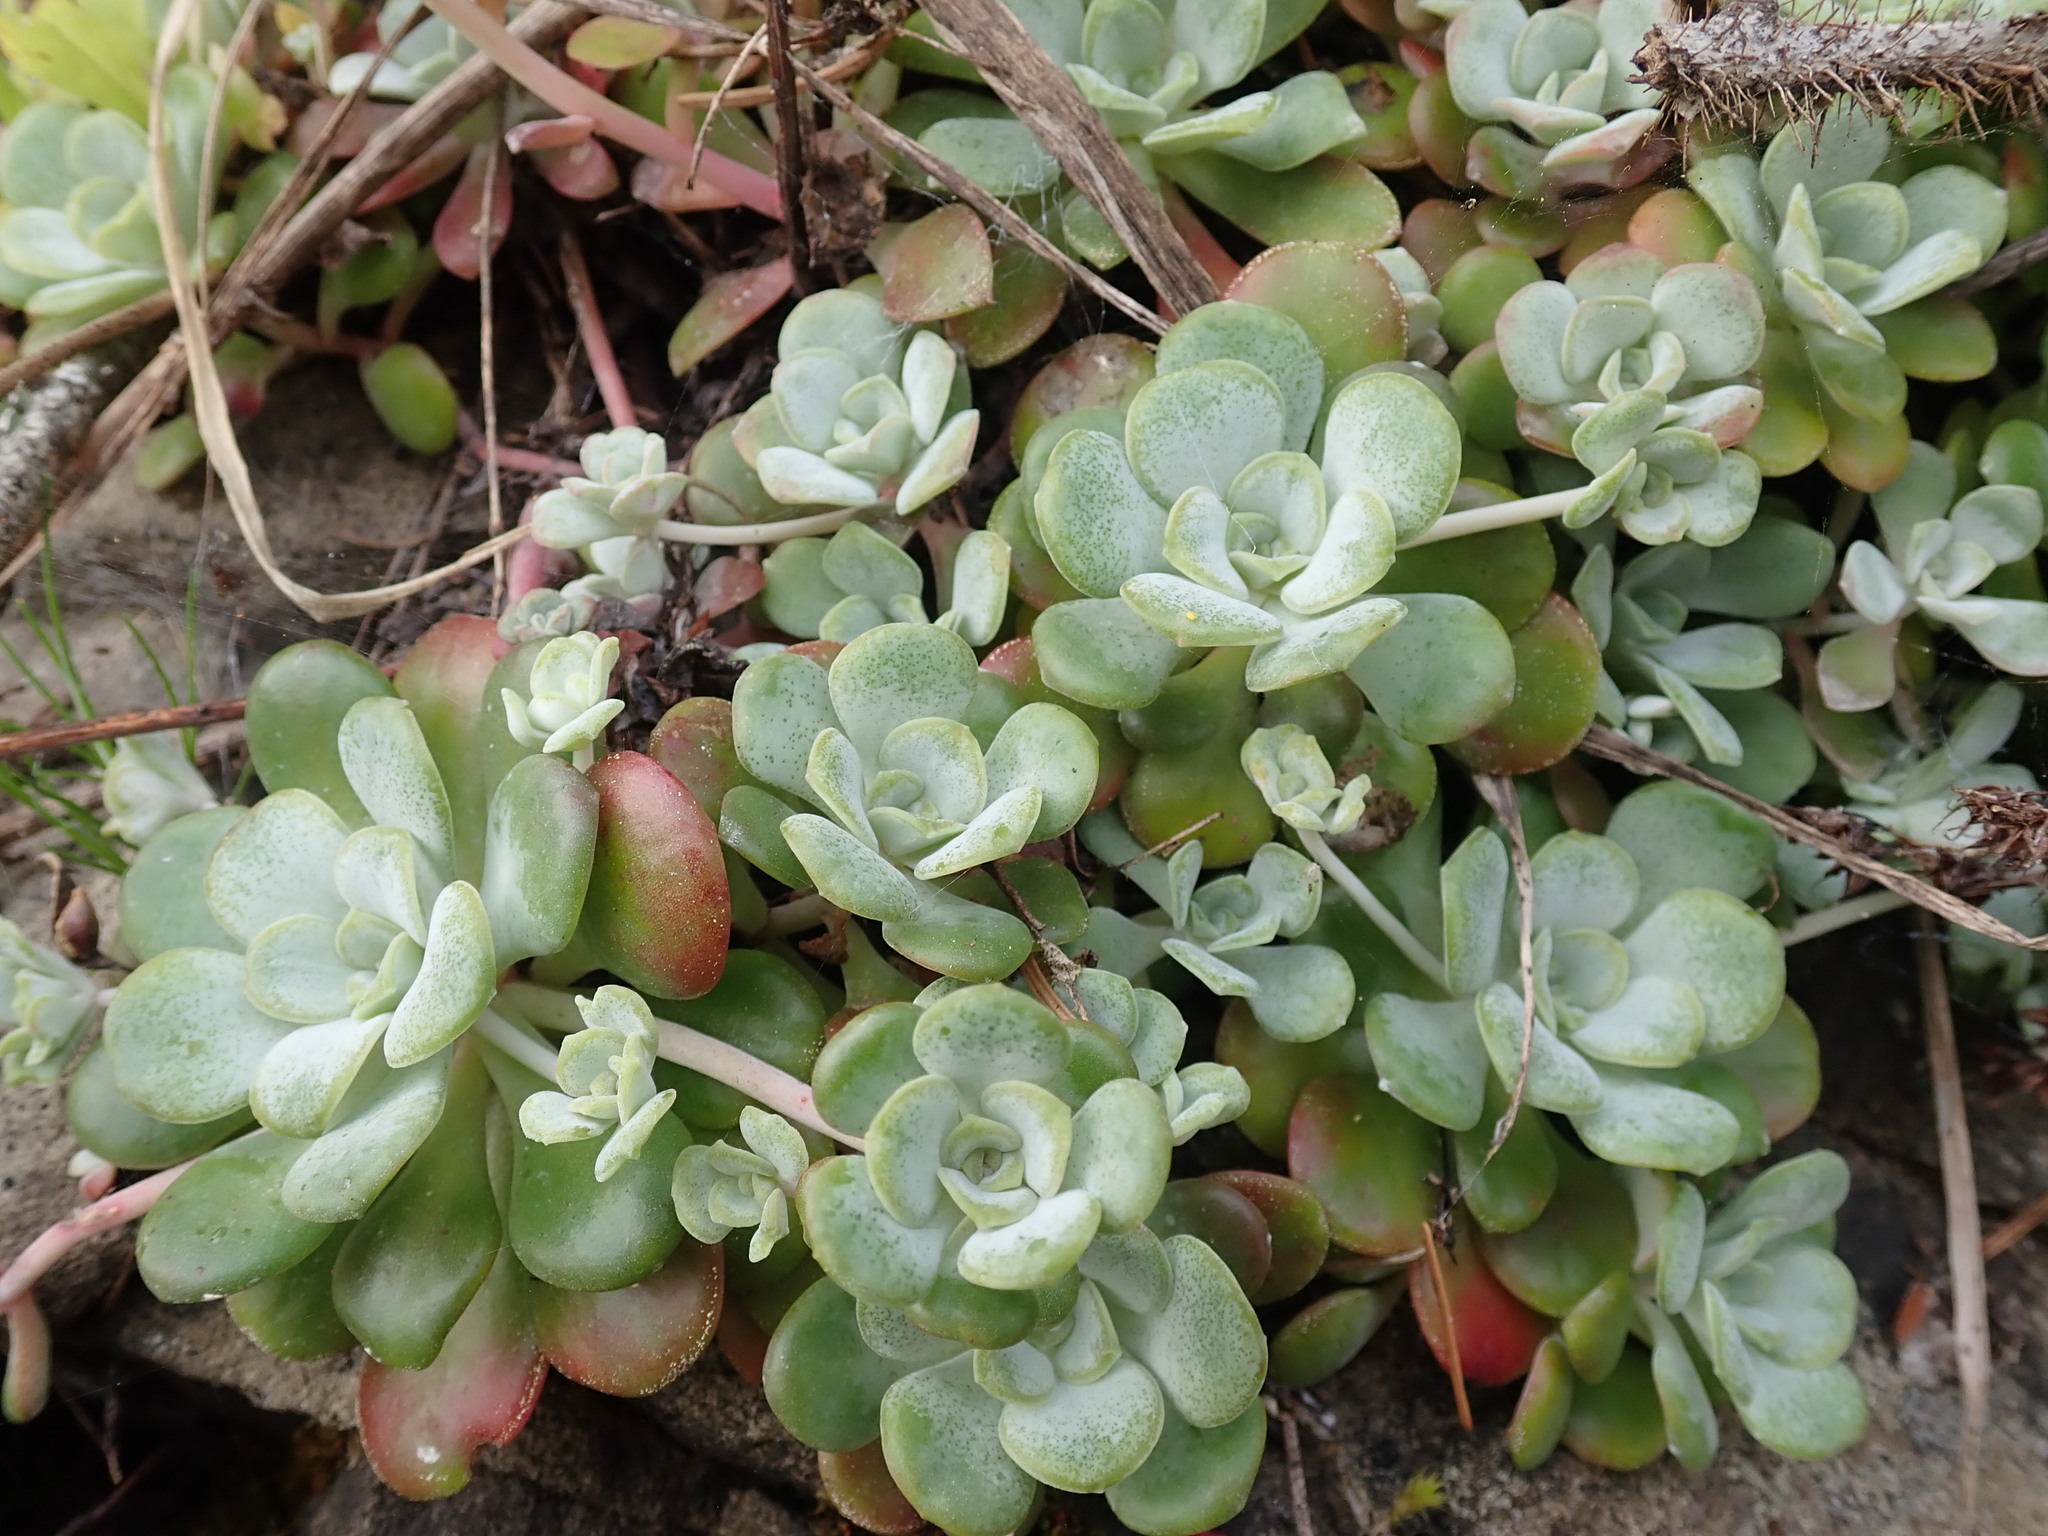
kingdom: Plantae
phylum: Tracheophyta
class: Magnoliopsida
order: Saxifragales
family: Crassulaceae
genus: Sedum
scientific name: Sedum spathulifolium
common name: Colorado stonecrop
